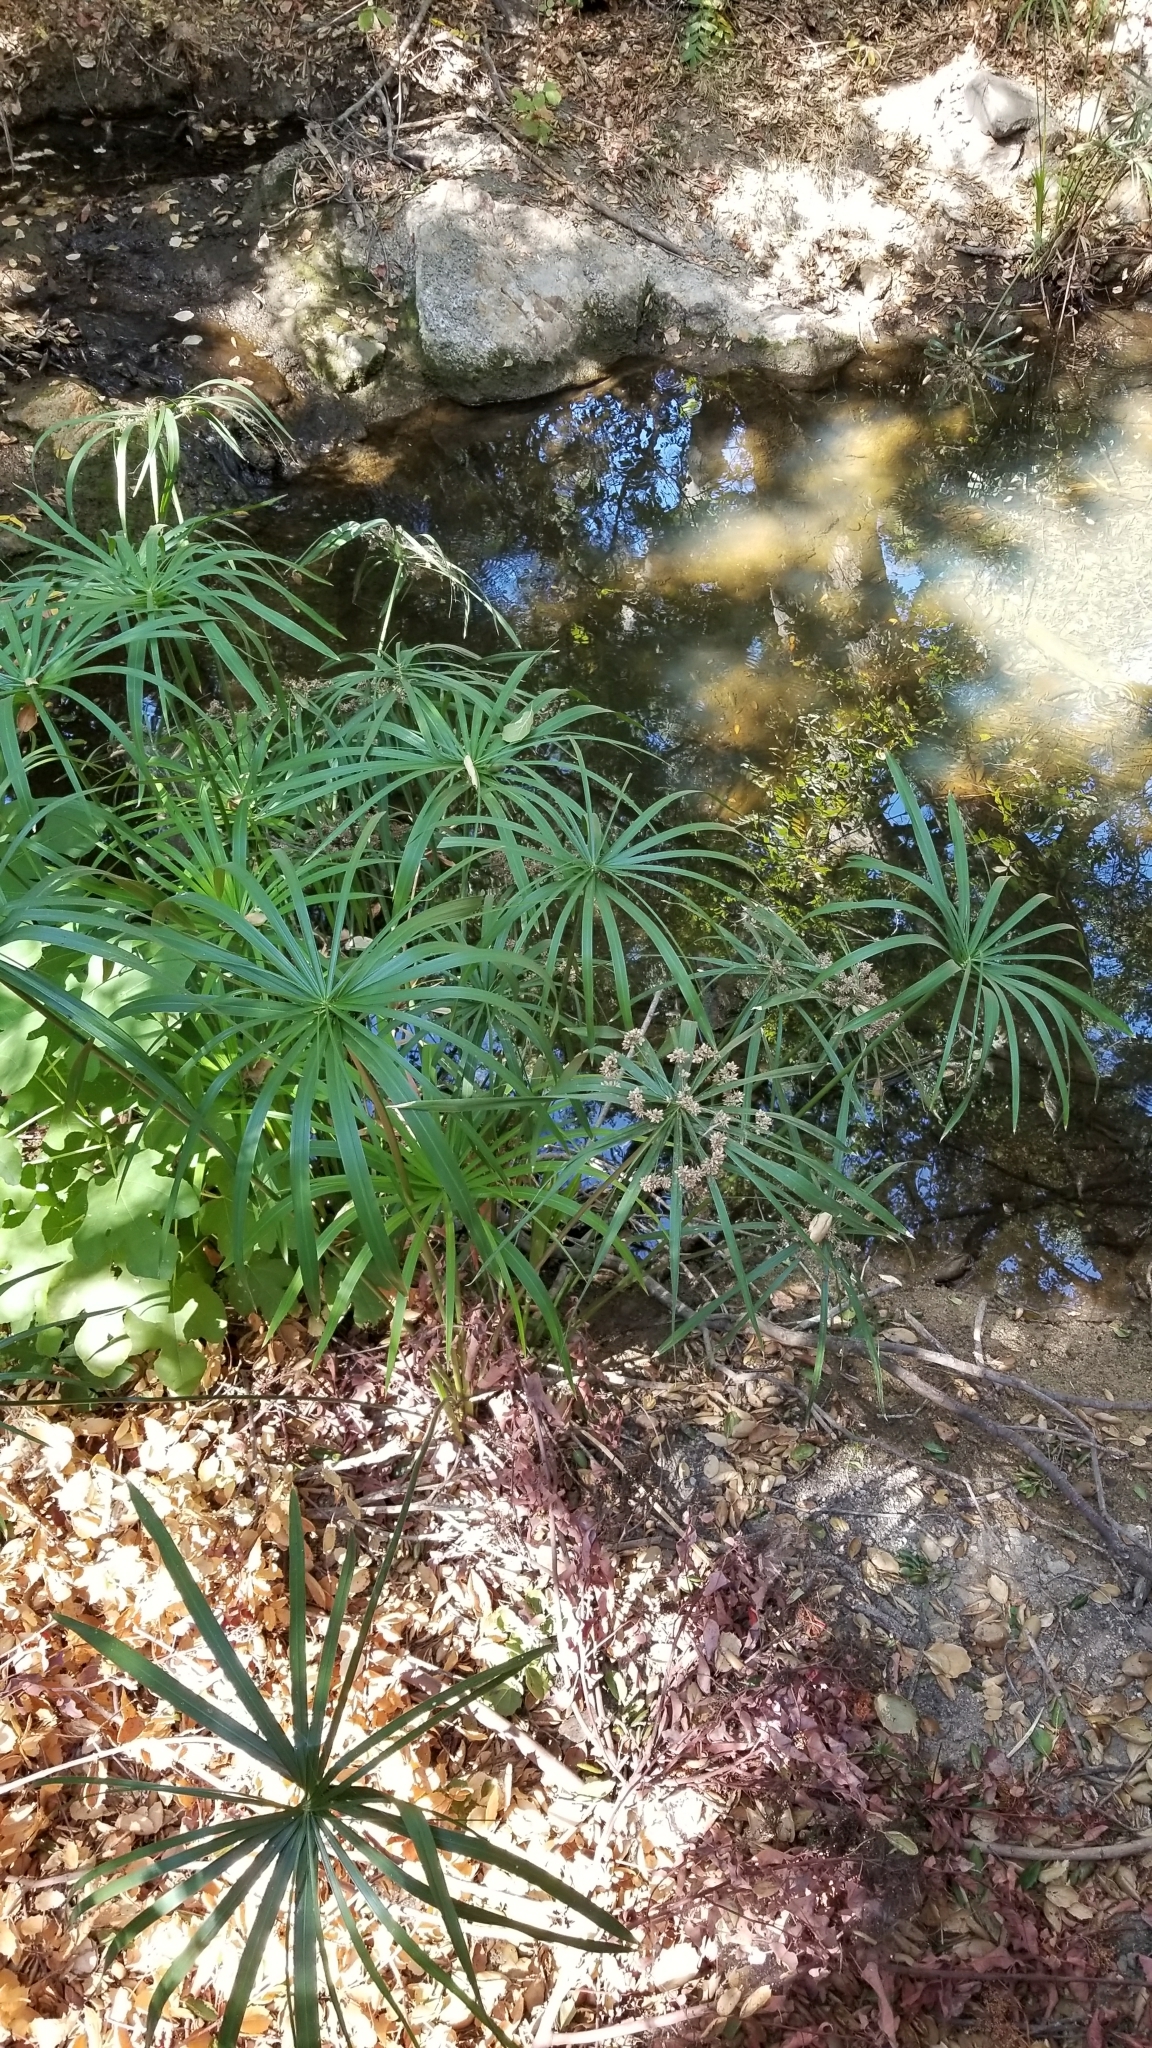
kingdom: Plantae
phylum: Tracheophyta
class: Liliopsida
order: Poales
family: Cyperaceae
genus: Cyperus
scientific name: Cyperus alternifolius
